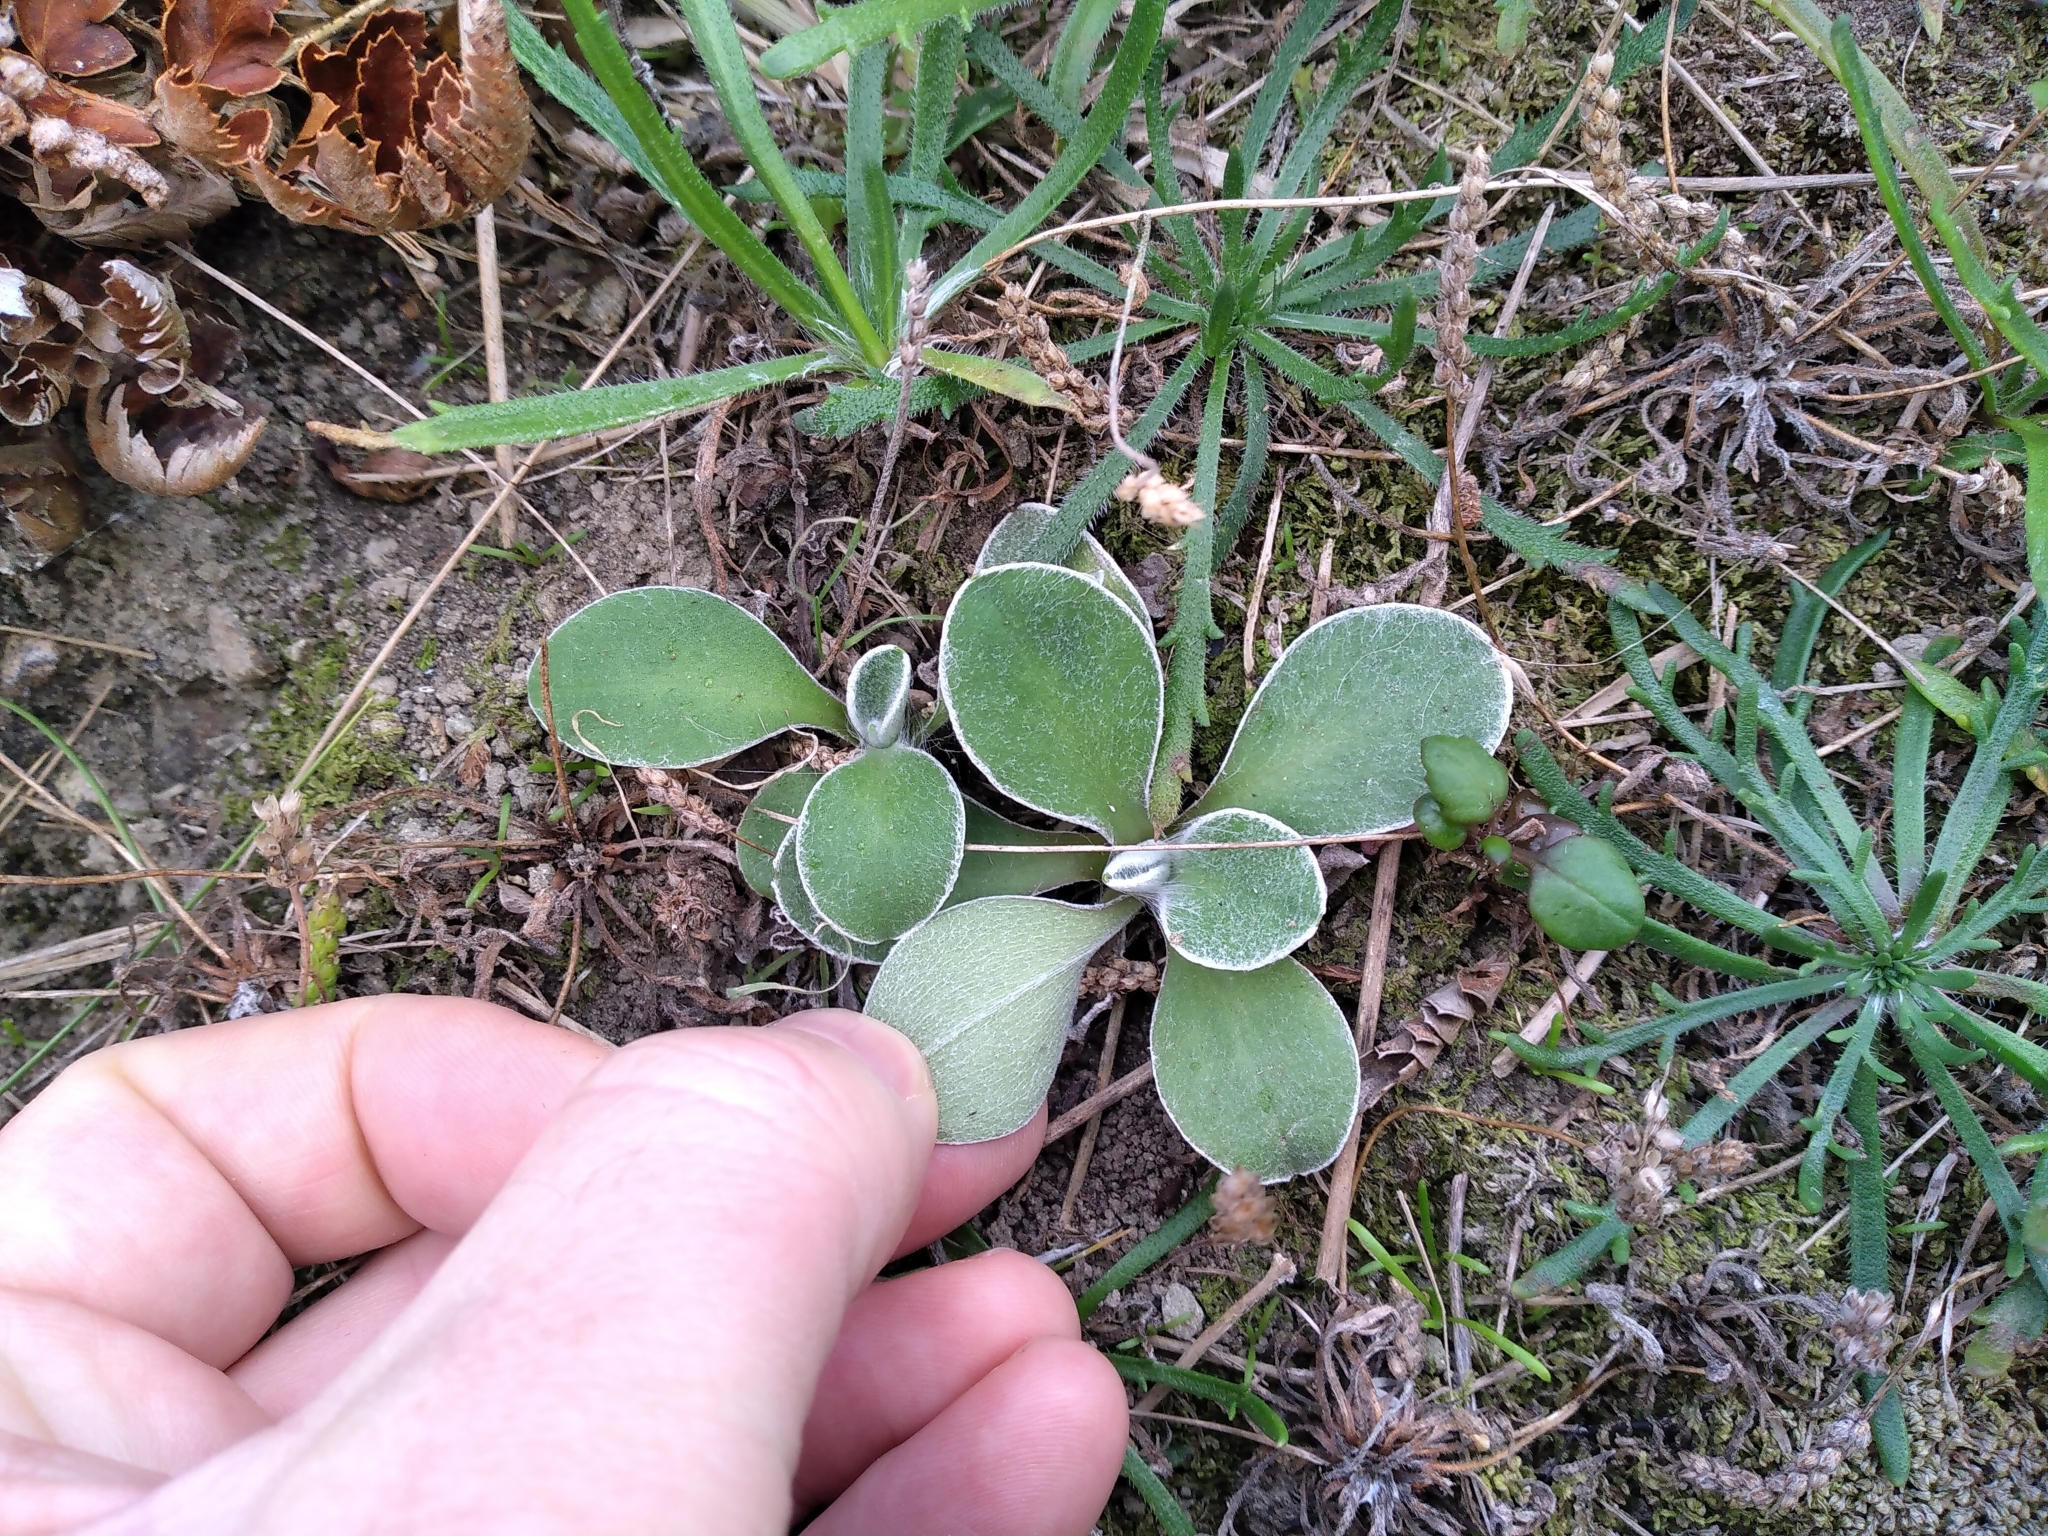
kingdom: Plantae
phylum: Tracheophyta
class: Magnoliopsida
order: Asterales
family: Asteraceae
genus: Craspedia
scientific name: Craspedia uniflora
